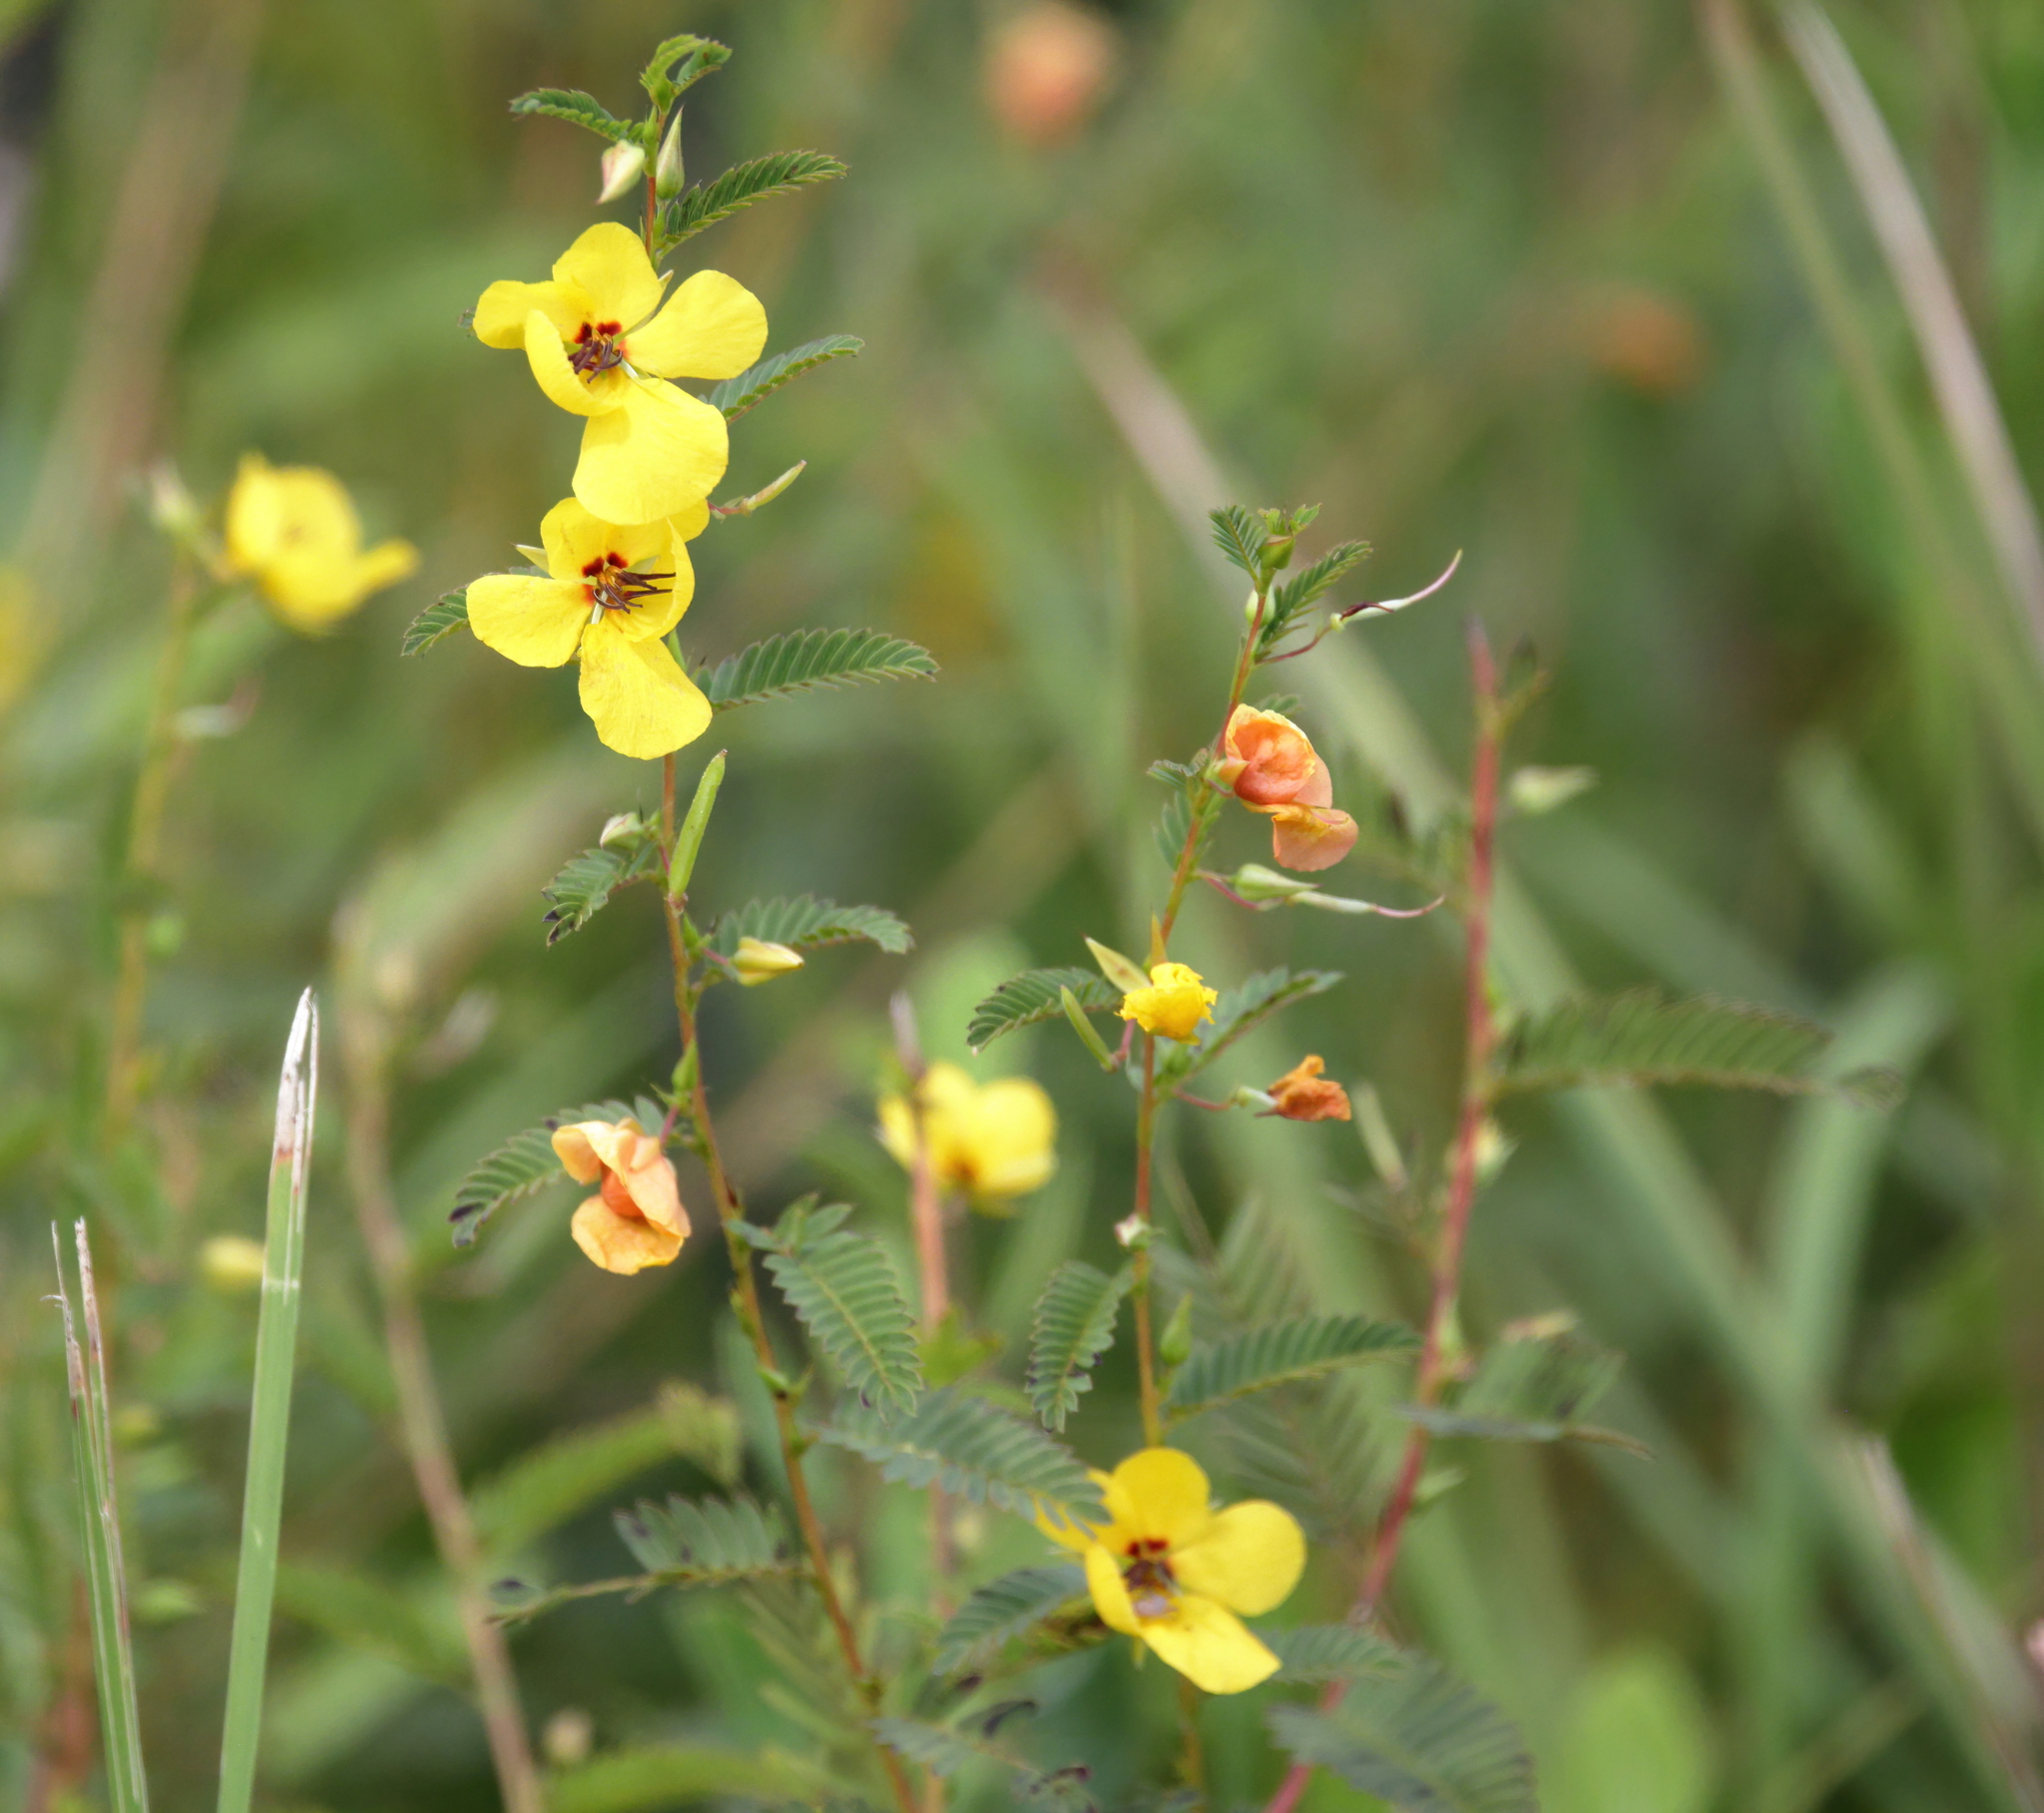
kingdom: Plantae
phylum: Tracheophyta
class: Magnoliopsida
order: Fabales
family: Fabaceae
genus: Chamaecrista
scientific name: Chamaecrista fasciculata
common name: Golden cassia
